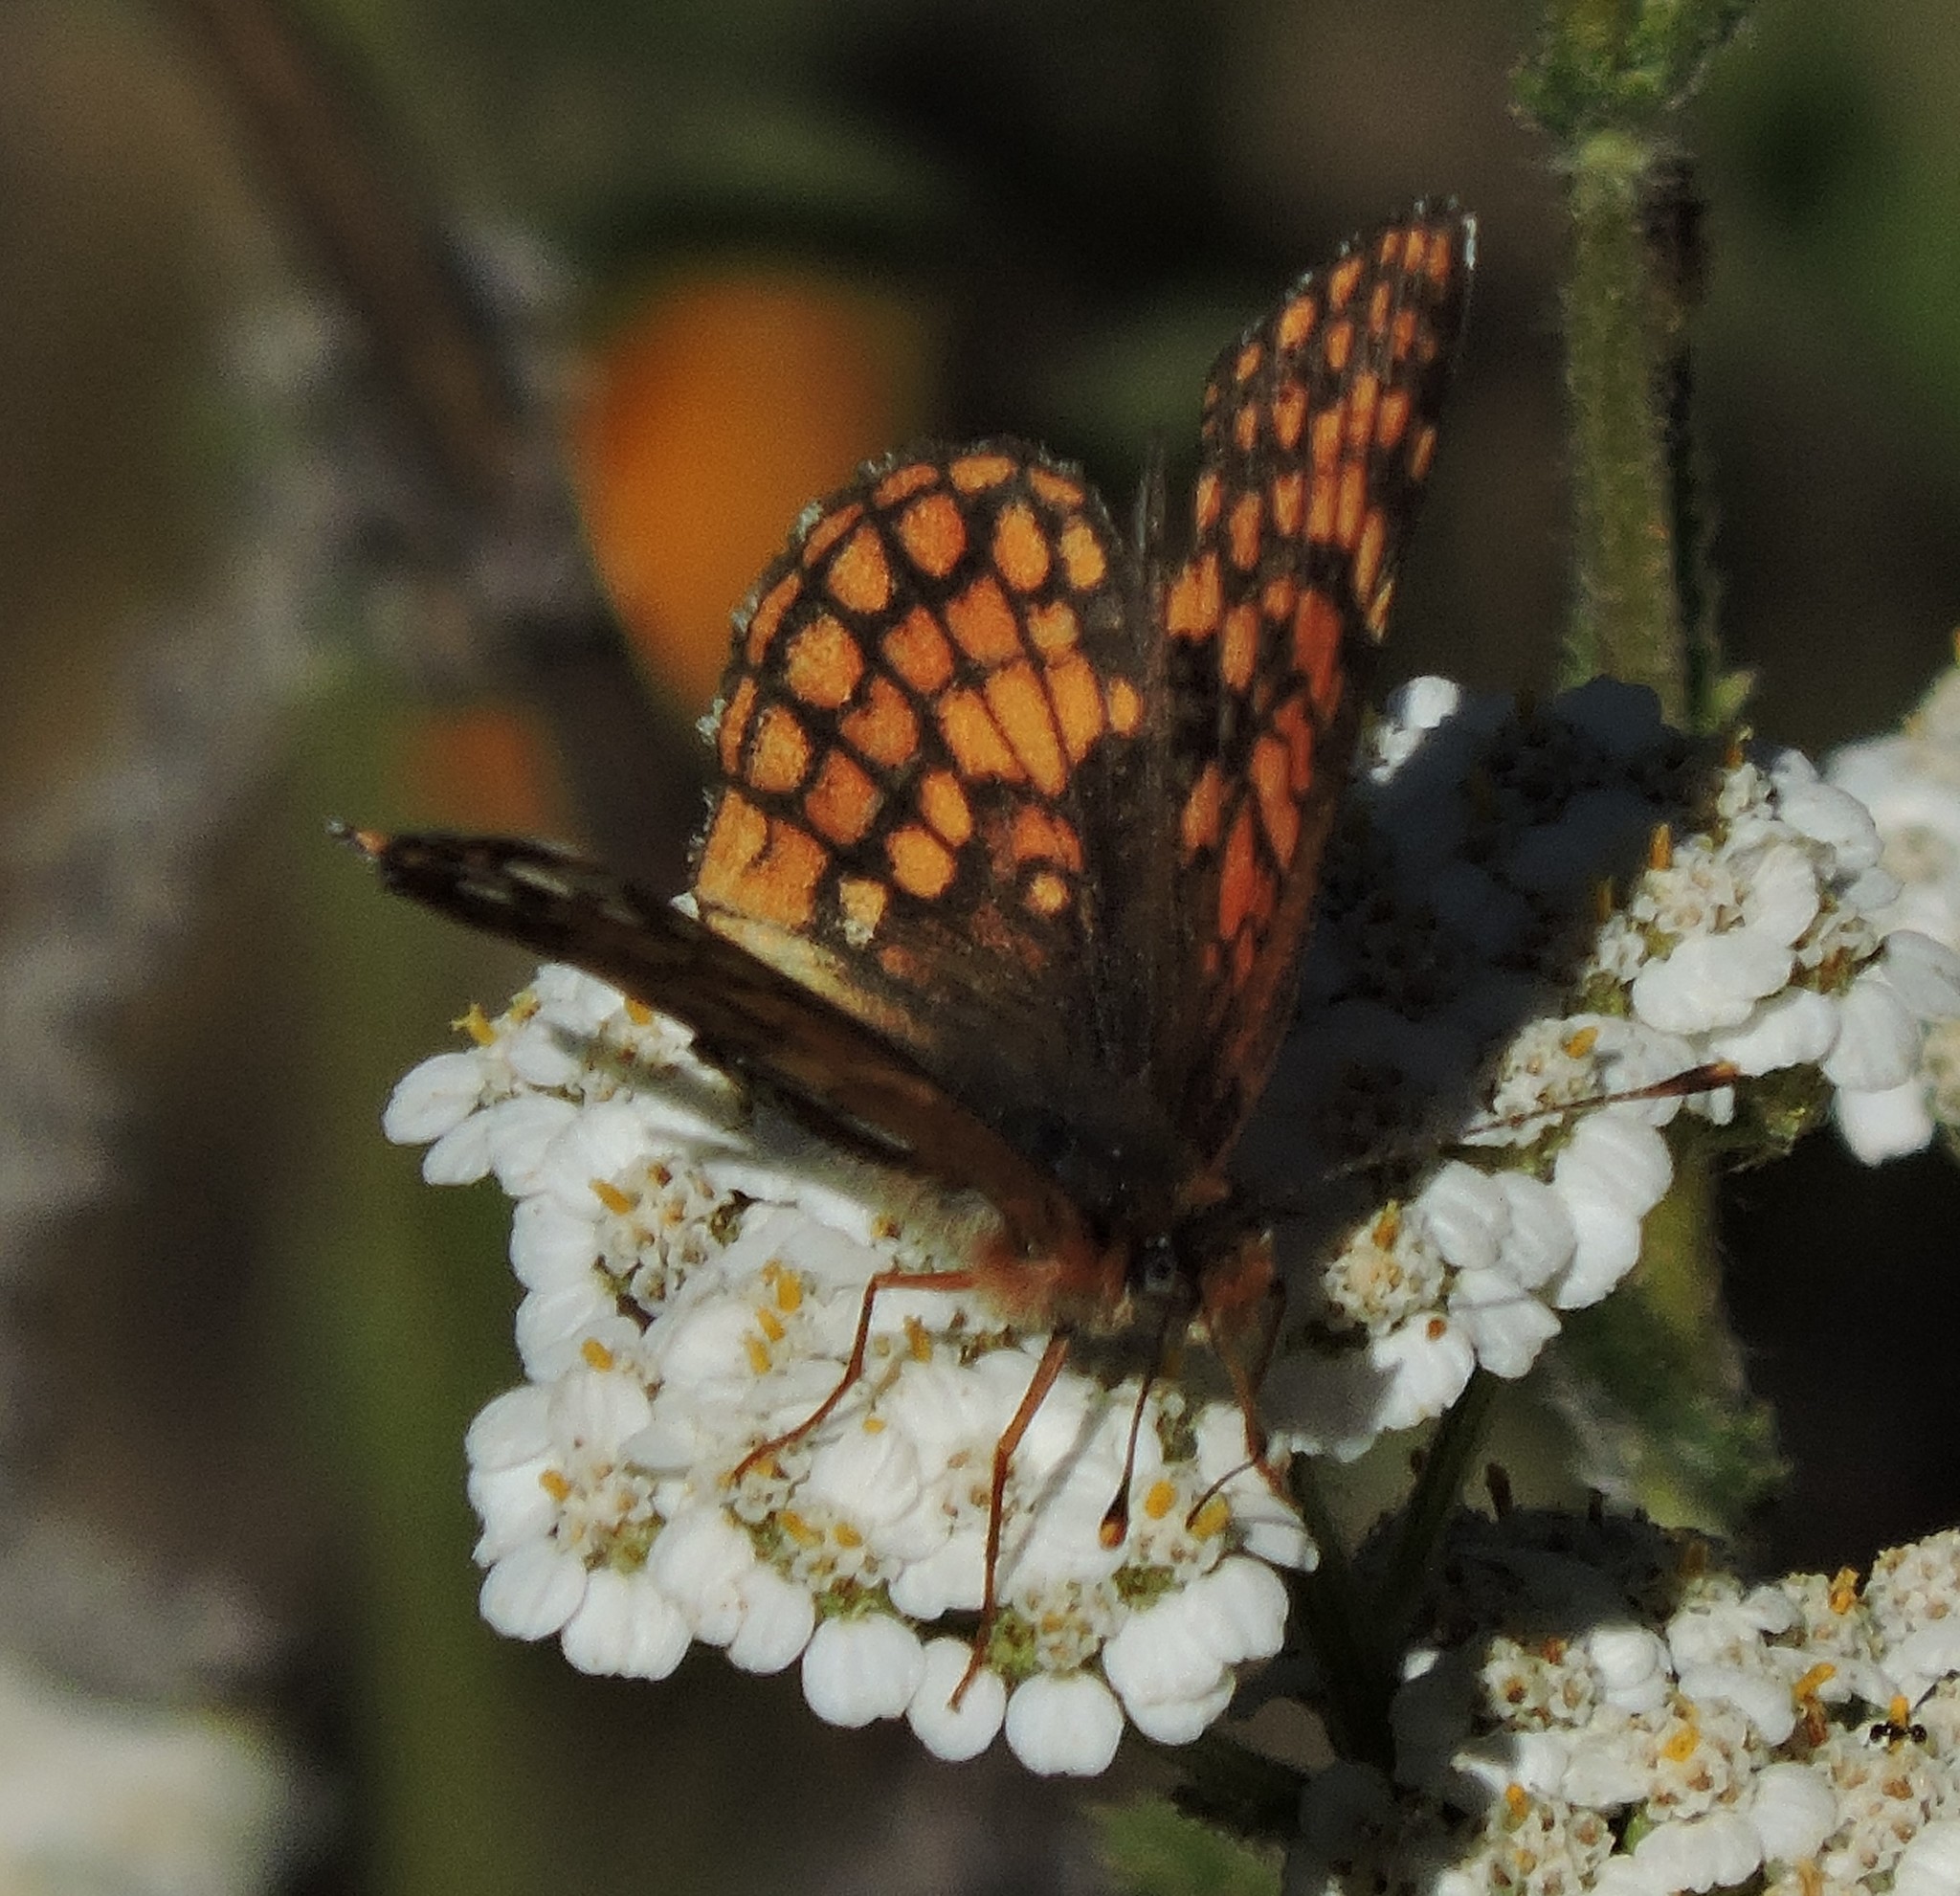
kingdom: Animalia
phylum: Arthropoda
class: Insecta
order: Lepidoptera
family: Nymphalidae
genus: Chlosyne
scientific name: Chlosyne palla
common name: Northern checkerspot
